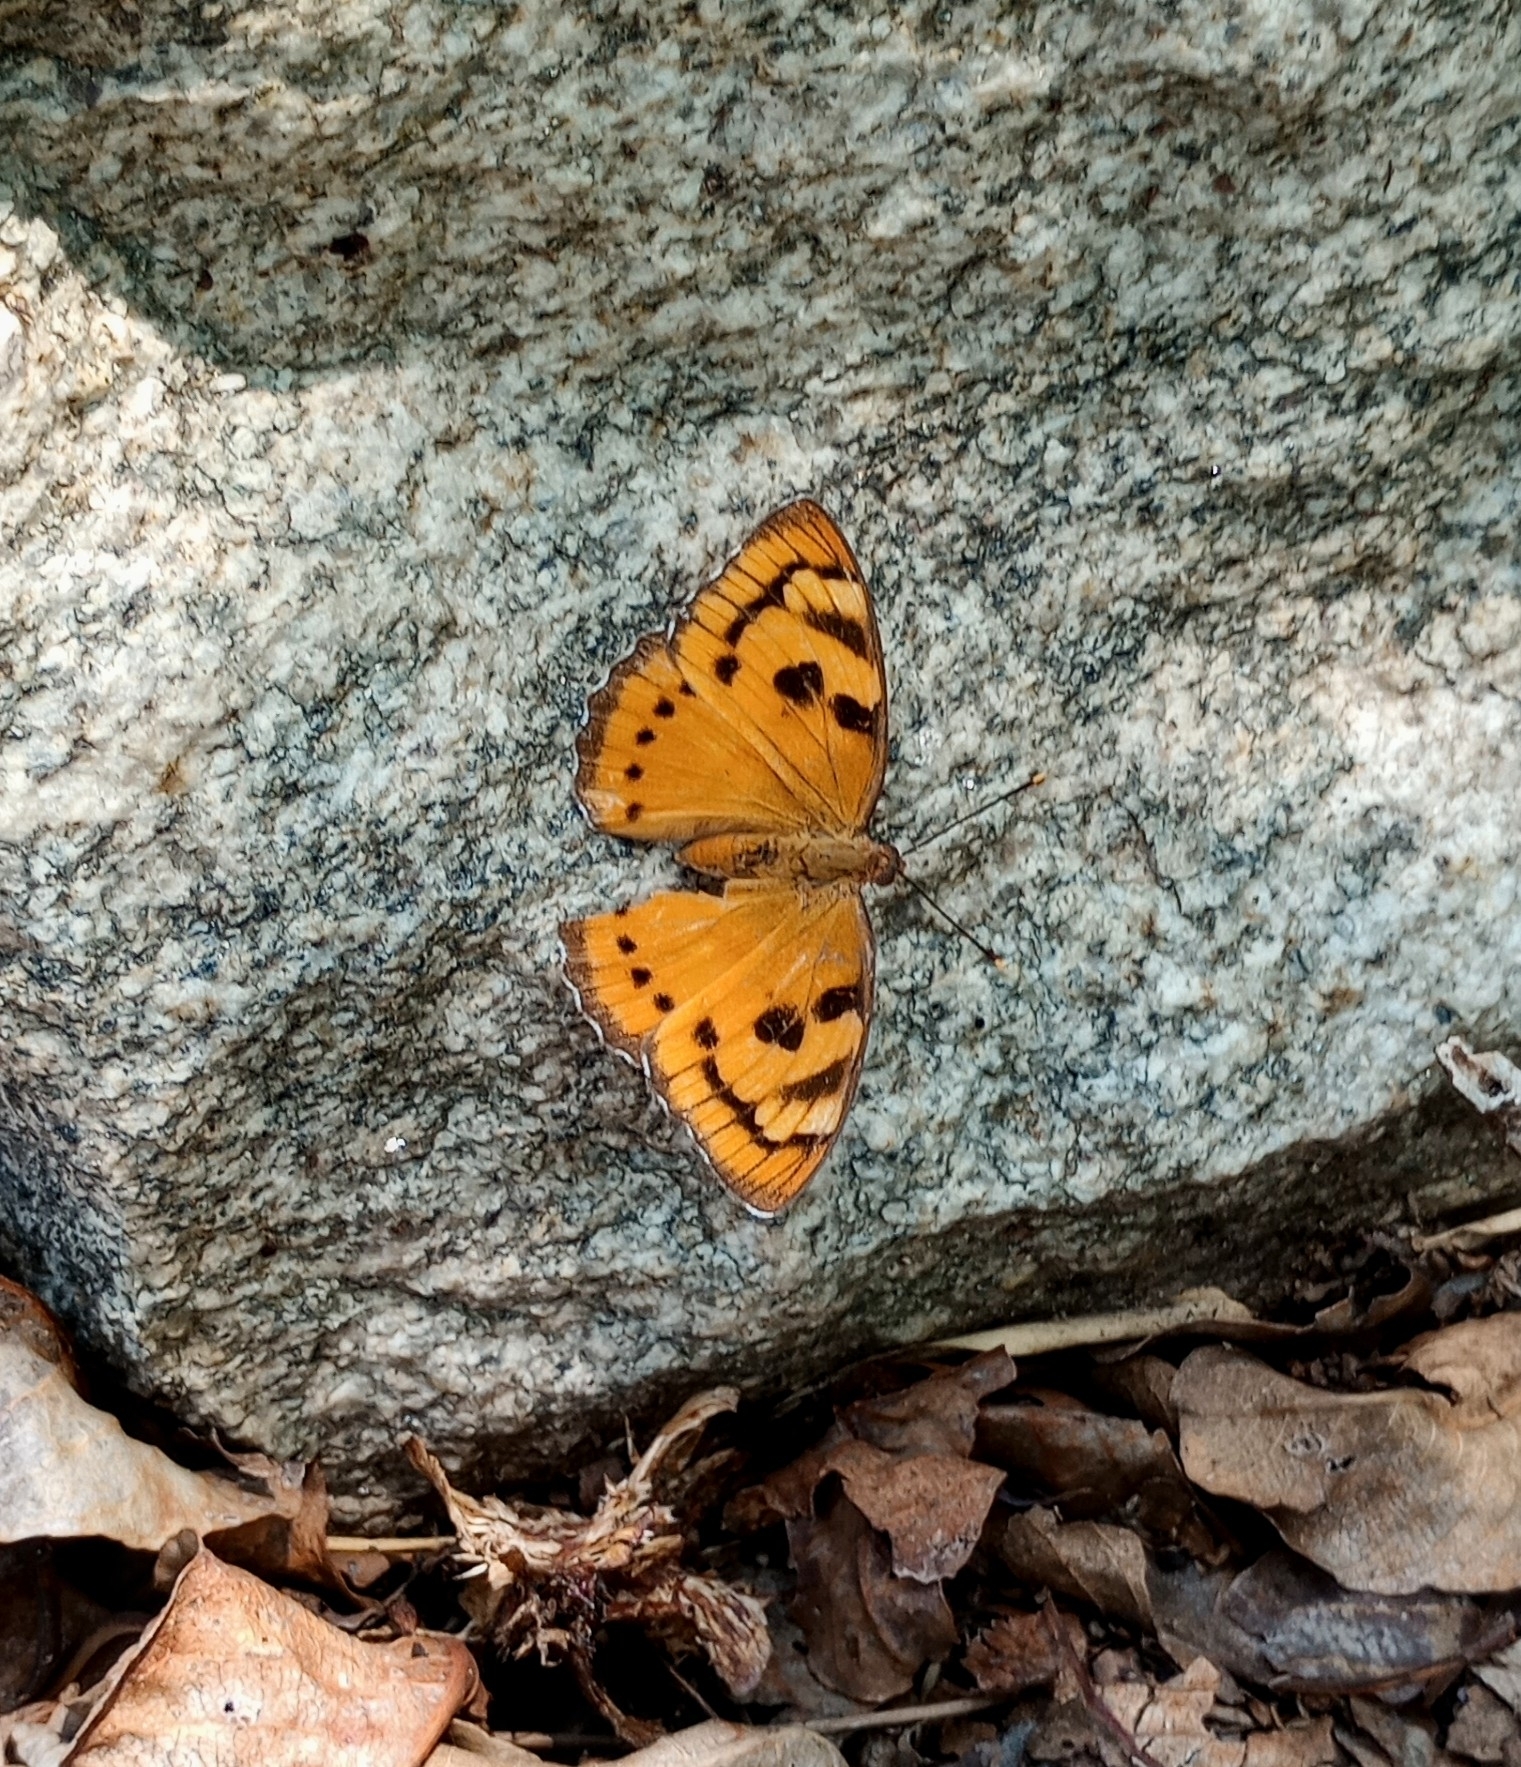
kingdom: Animalia
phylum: Arthropoda
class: Insecta
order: Lepidoptera
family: Nymphalidae
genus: Euthalia
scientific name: Euthalia nais
